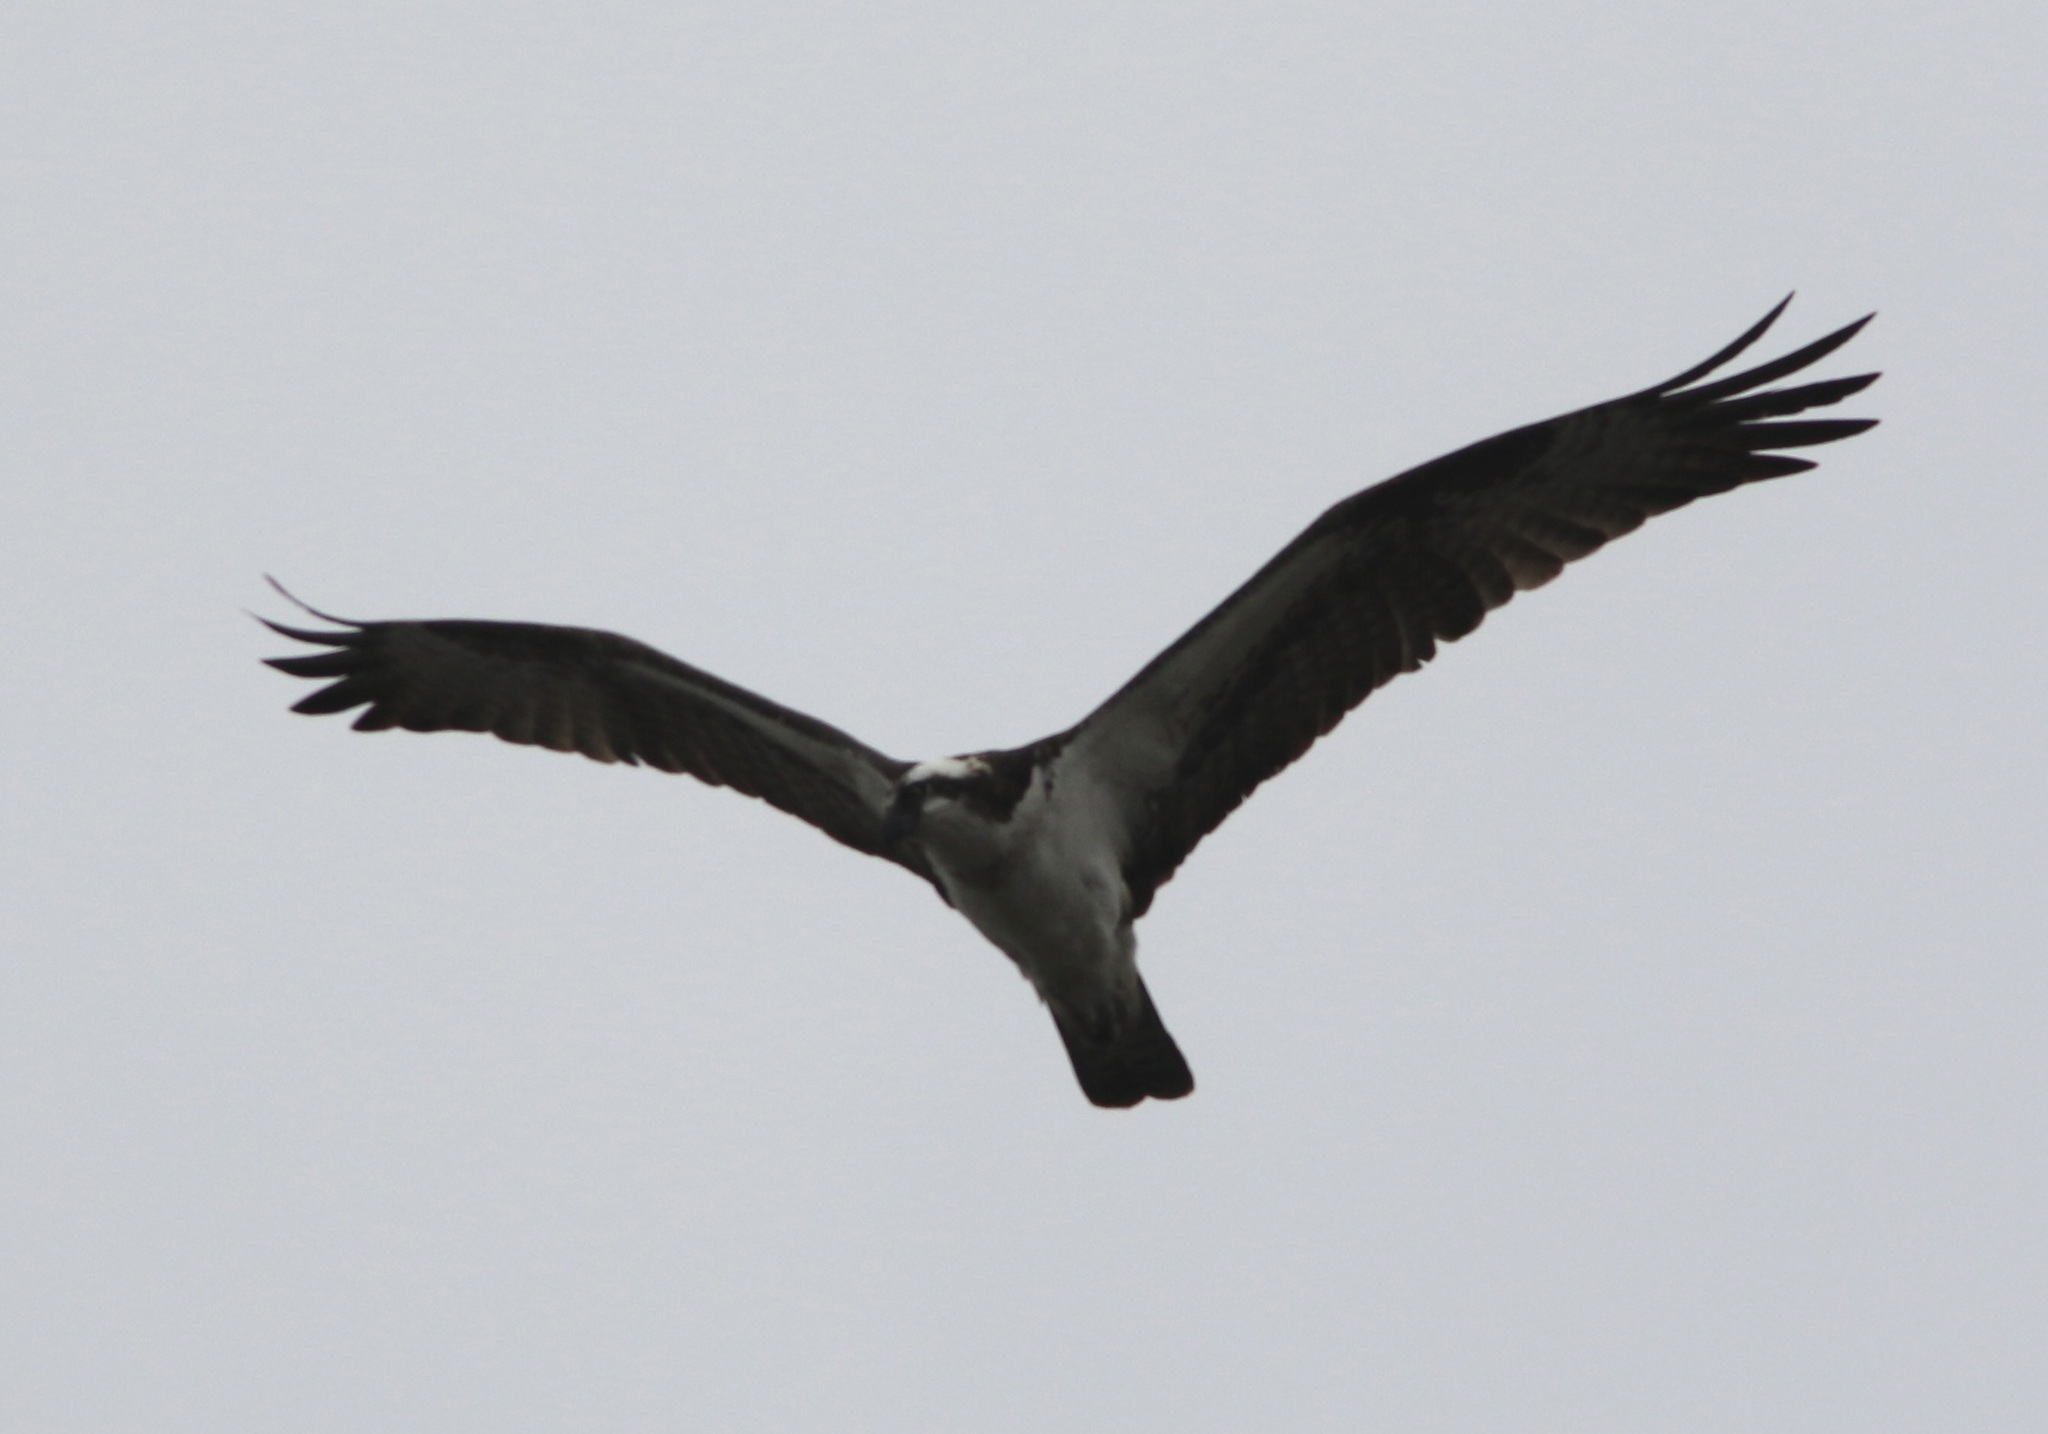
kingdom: Animalia
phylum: Chordata
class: Aves
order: Accipitriformes
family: Pandionidae
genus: Pandion
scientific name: Pandion haliaetus
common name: Osprey
